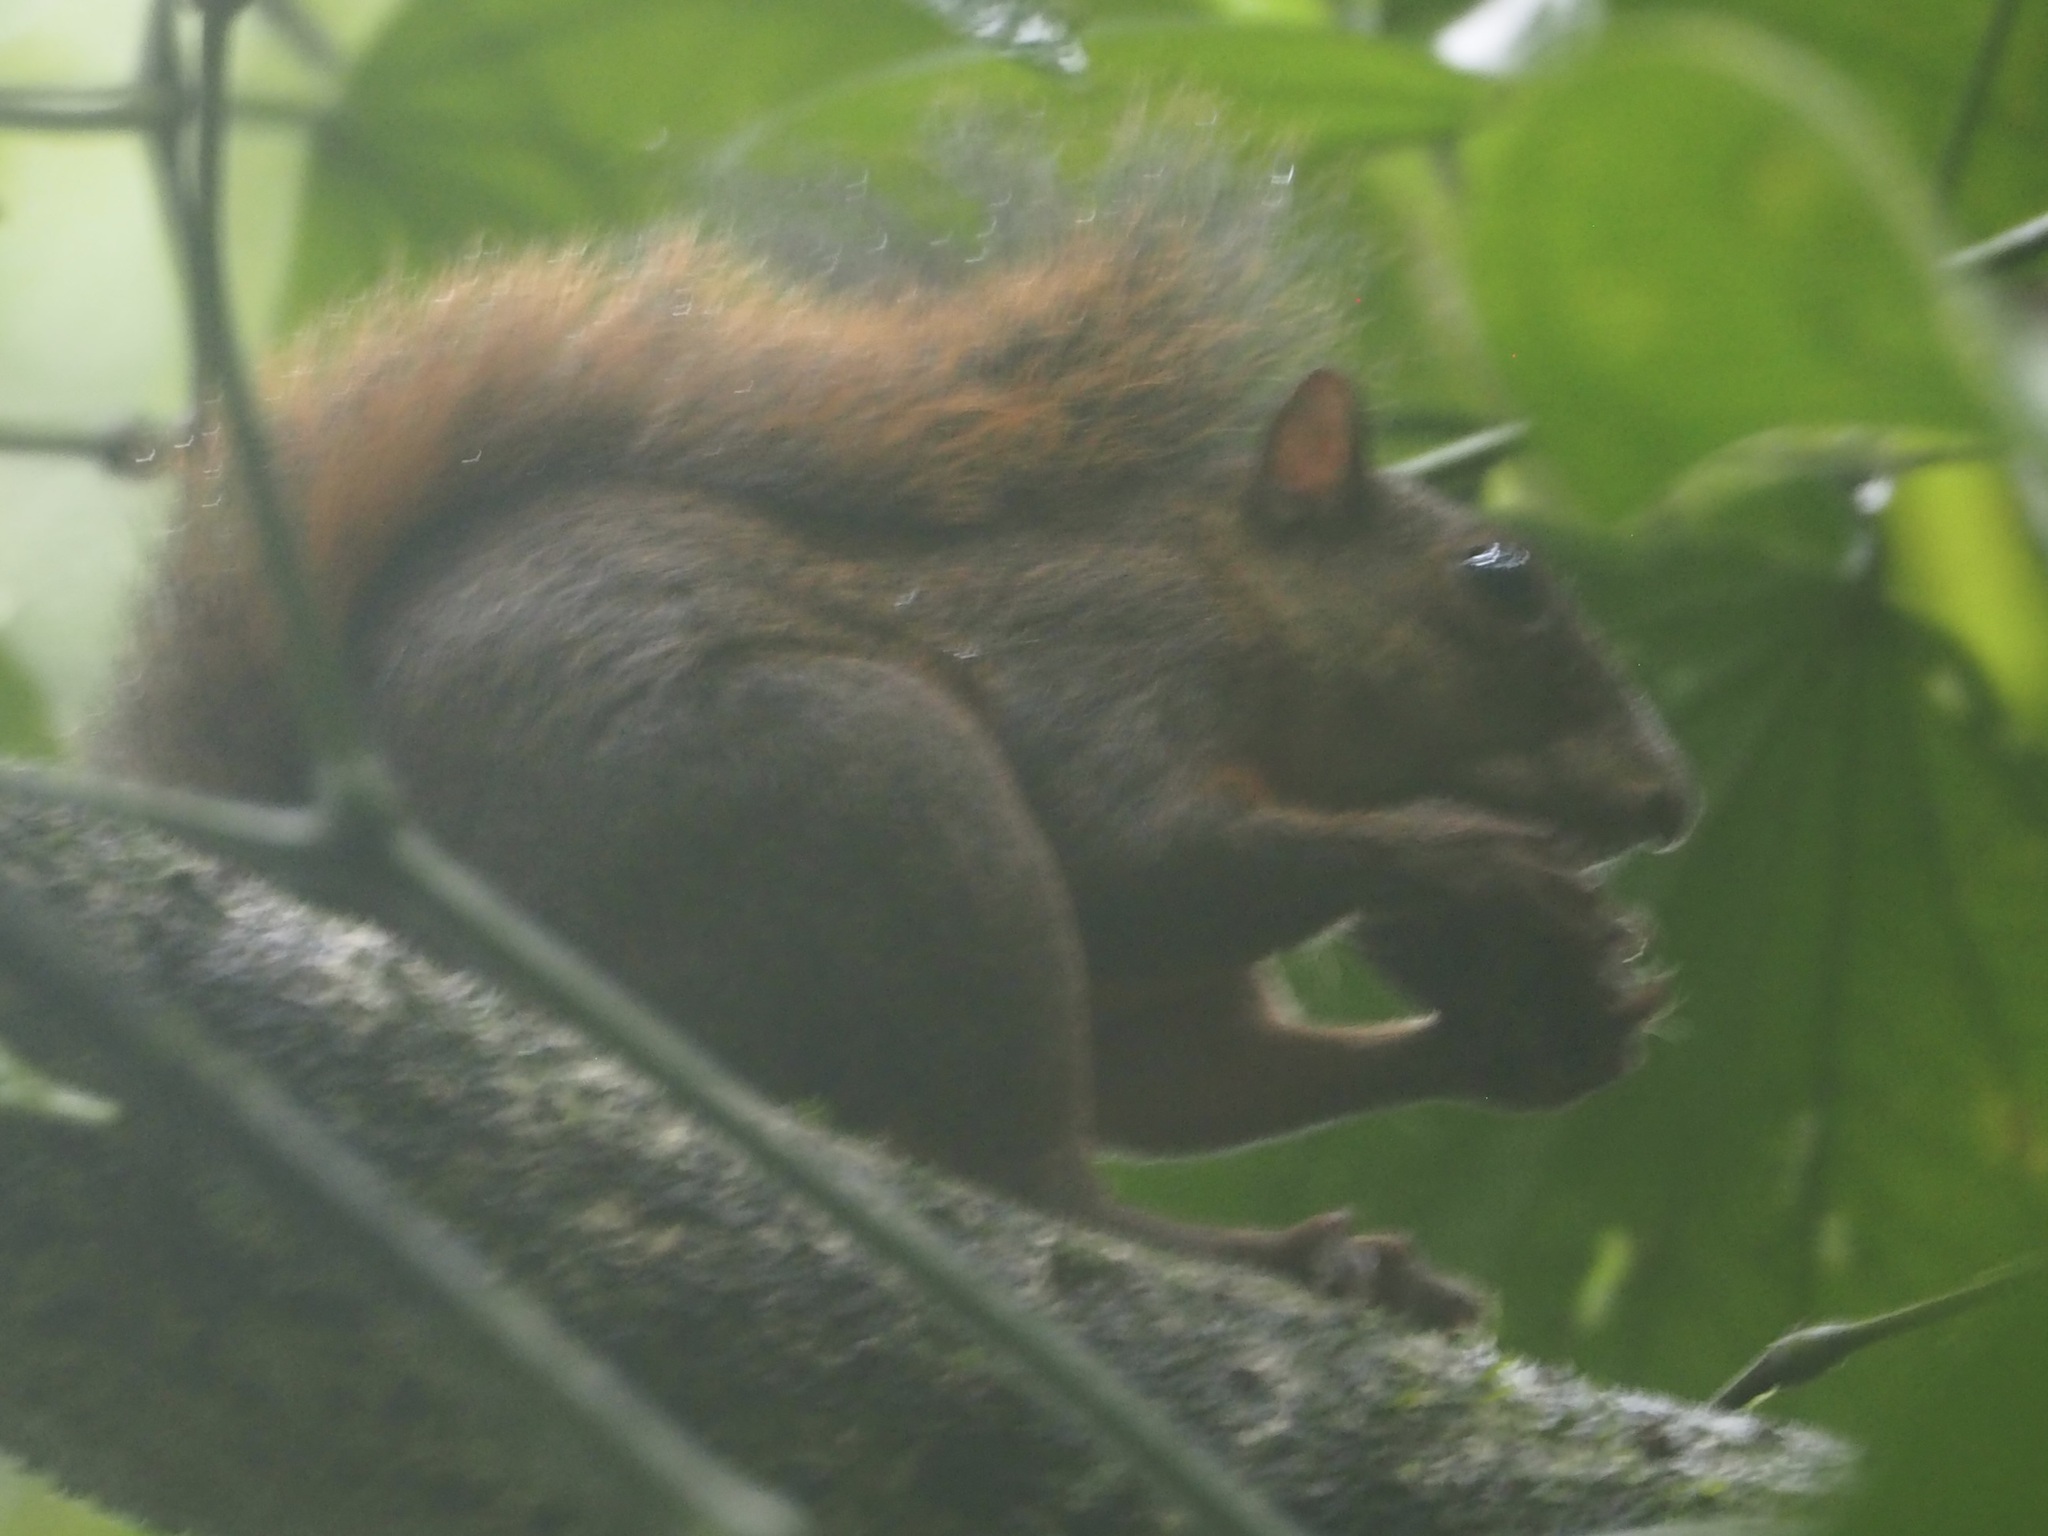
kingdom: Animalia
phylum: Chordata
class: Mammalia
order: Rodentia
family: Sciuridae
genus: Sciurus
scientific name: Sciurus granatensis
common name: Red-tailed squirrel
